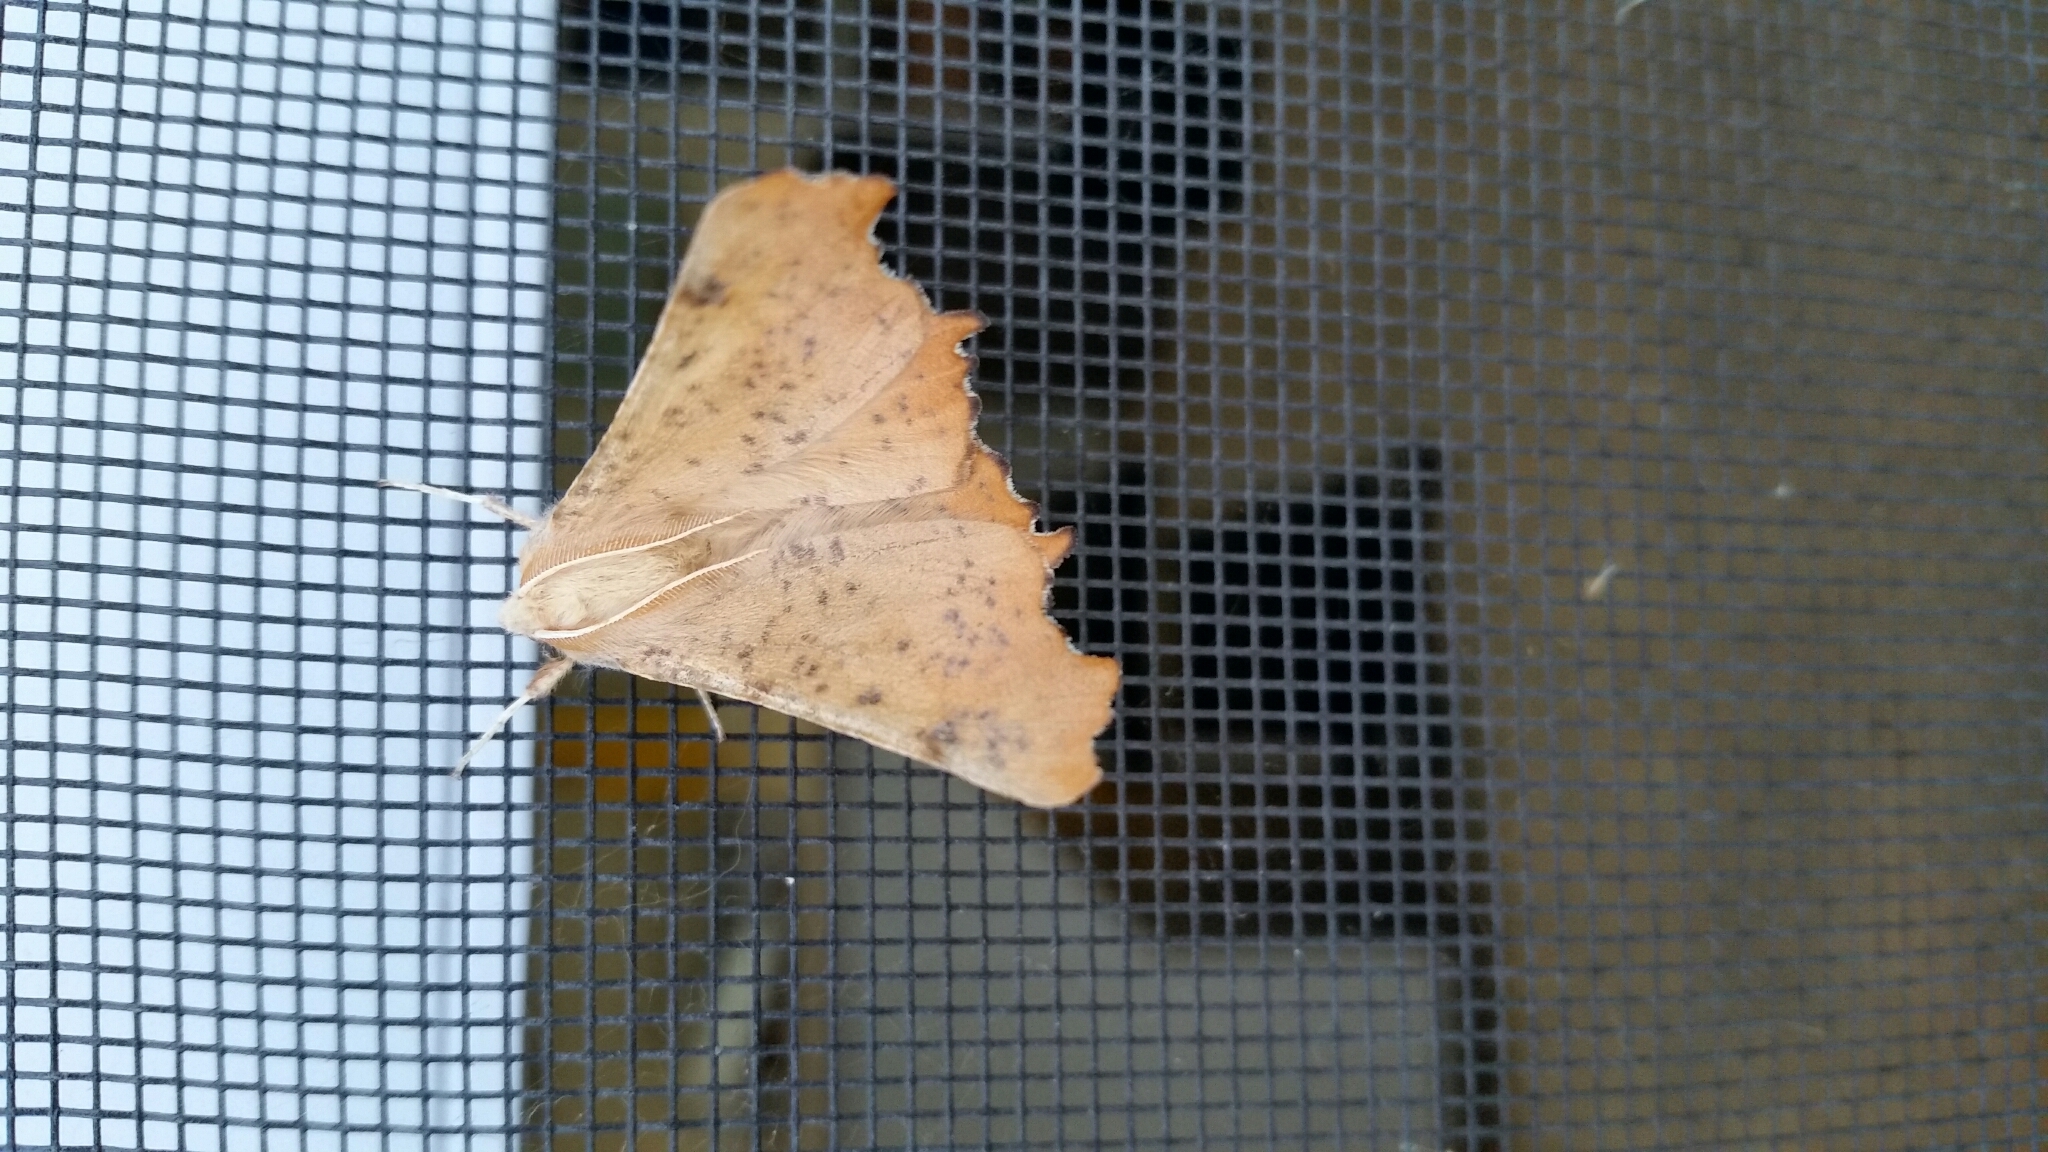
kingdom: Animalia
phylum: Arthropoda
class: Insecta
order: Lepidoptera
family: Geometridae
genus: Ennomos
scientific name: Ennomos magnaria
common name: Maple spanworm
